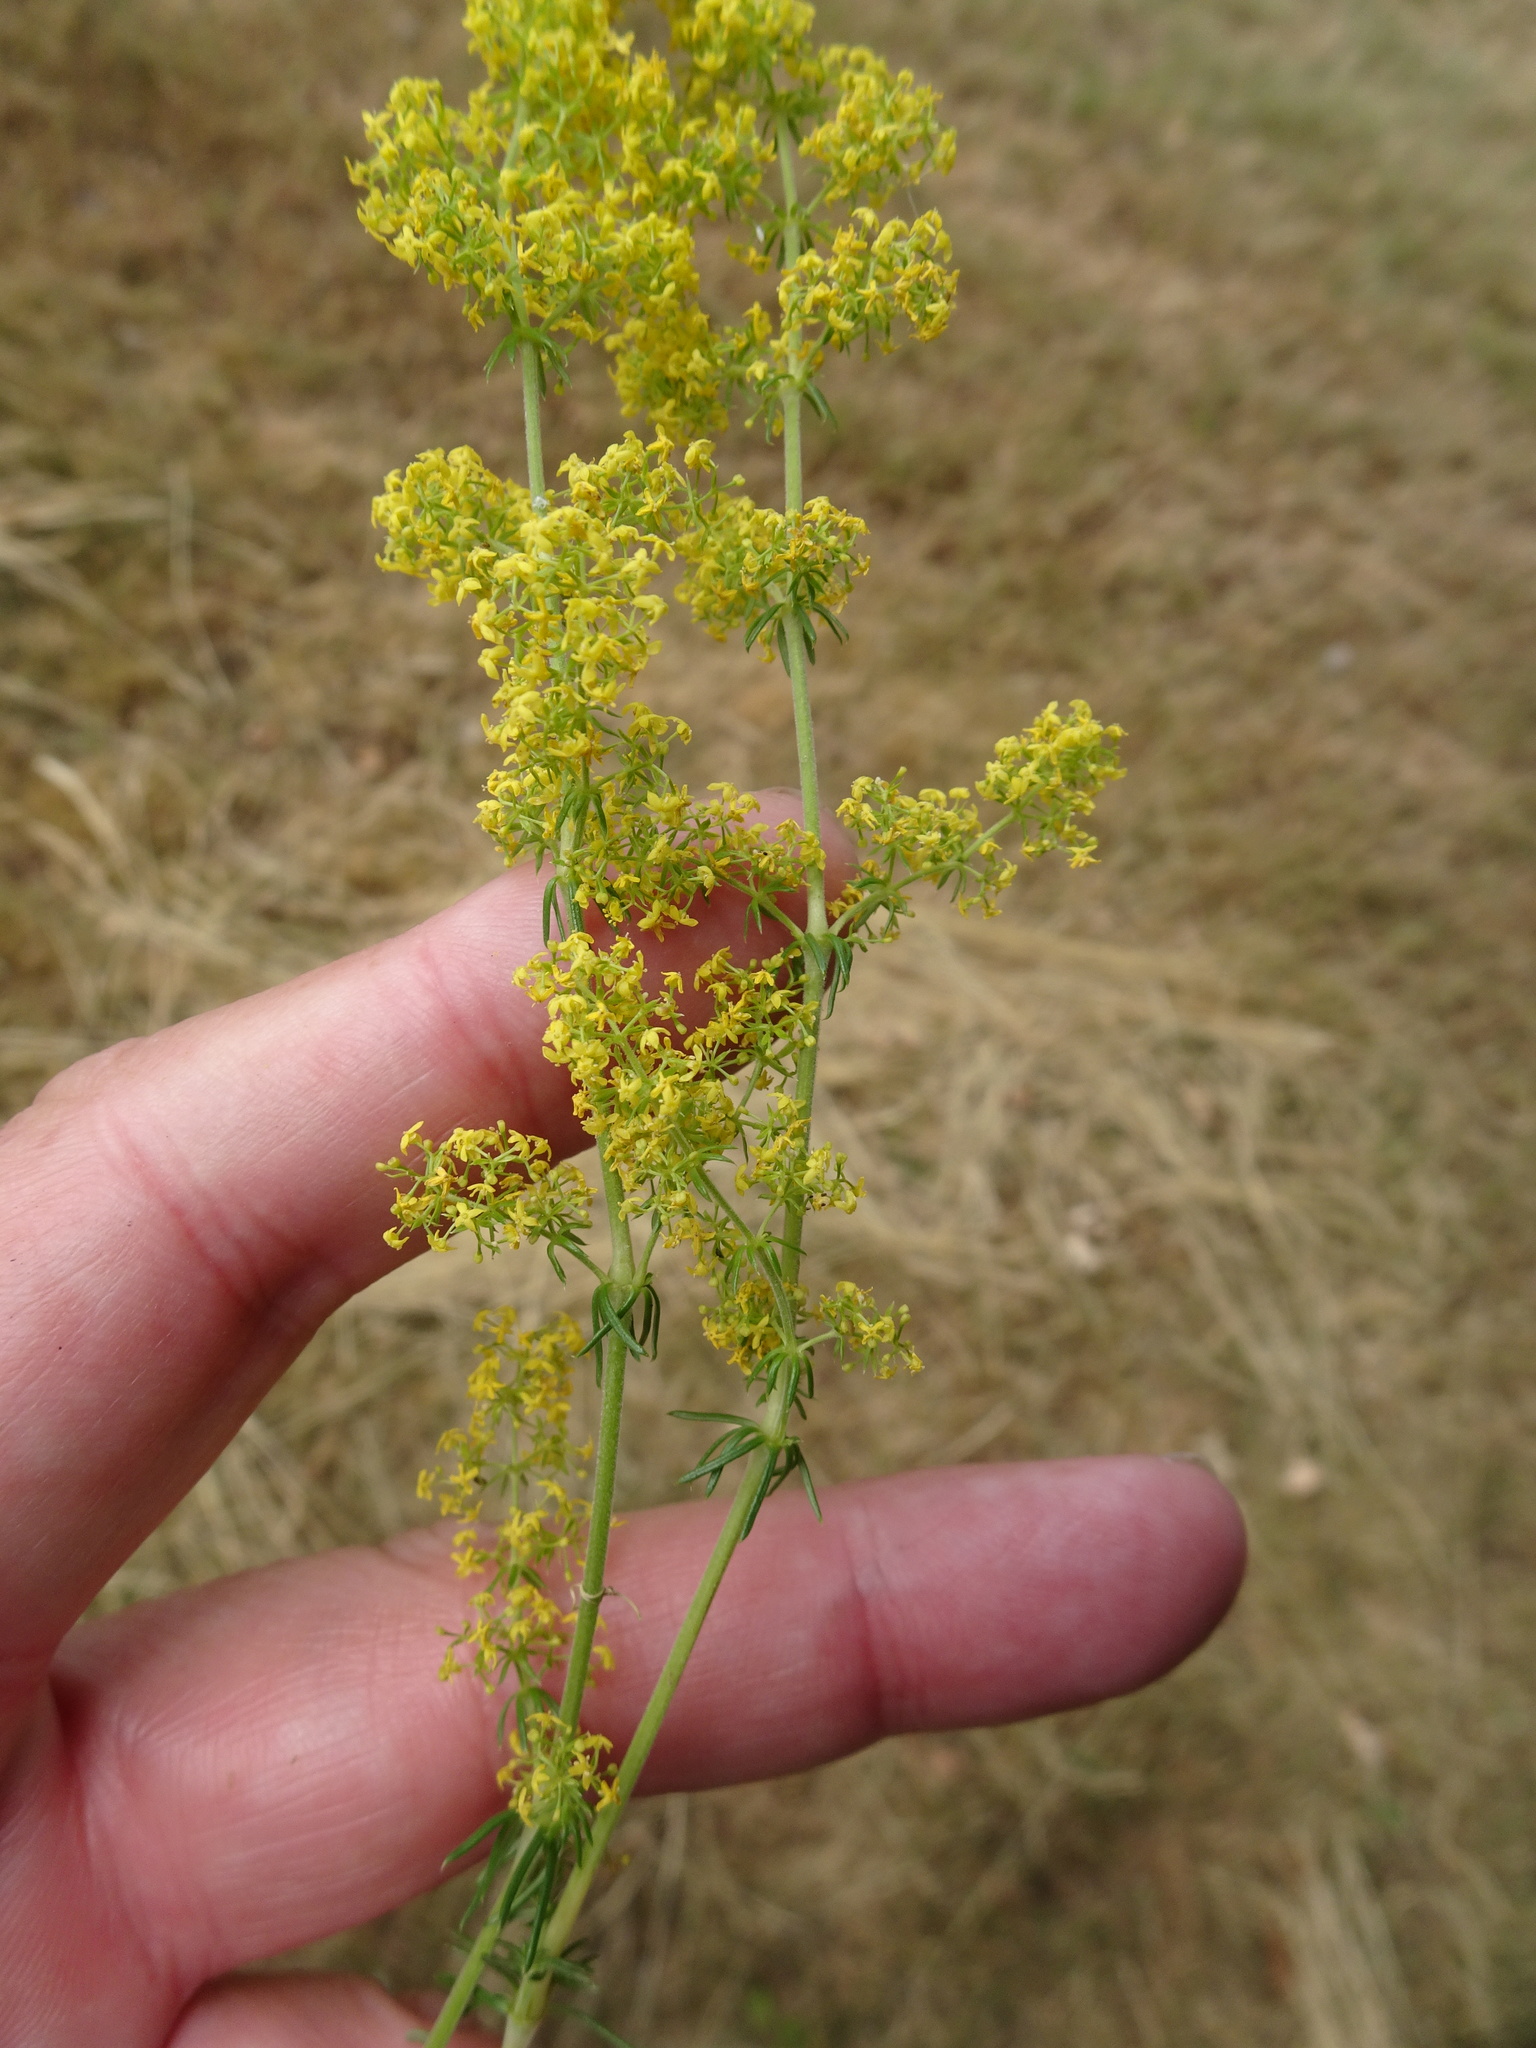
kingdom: Plantae
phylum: Tracheophyta
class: Magnoliopsida
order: Gentianales
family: Rubiaceae
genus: Galium
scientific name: Galium verum
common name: Lady's bedstraw
